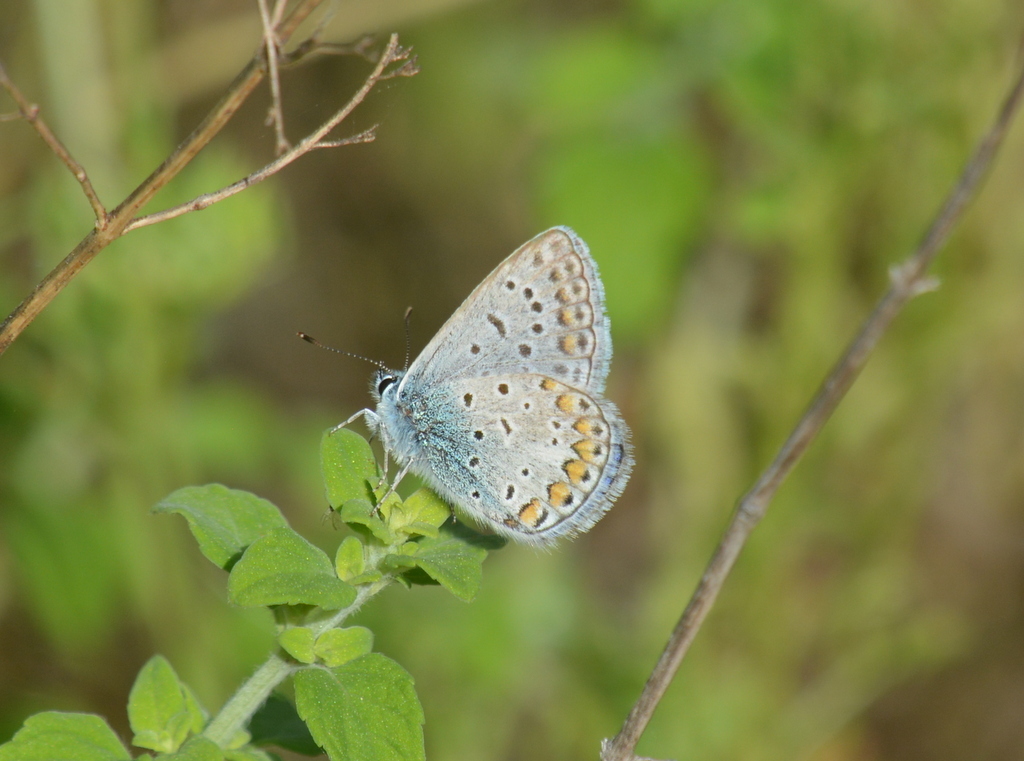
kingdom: Animalia
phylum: Arthropoda
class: Insecta
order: Lepidoptera
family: Lycaenidae
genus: Polyommatus
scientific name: Polyommatus icarus
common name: Common blue
